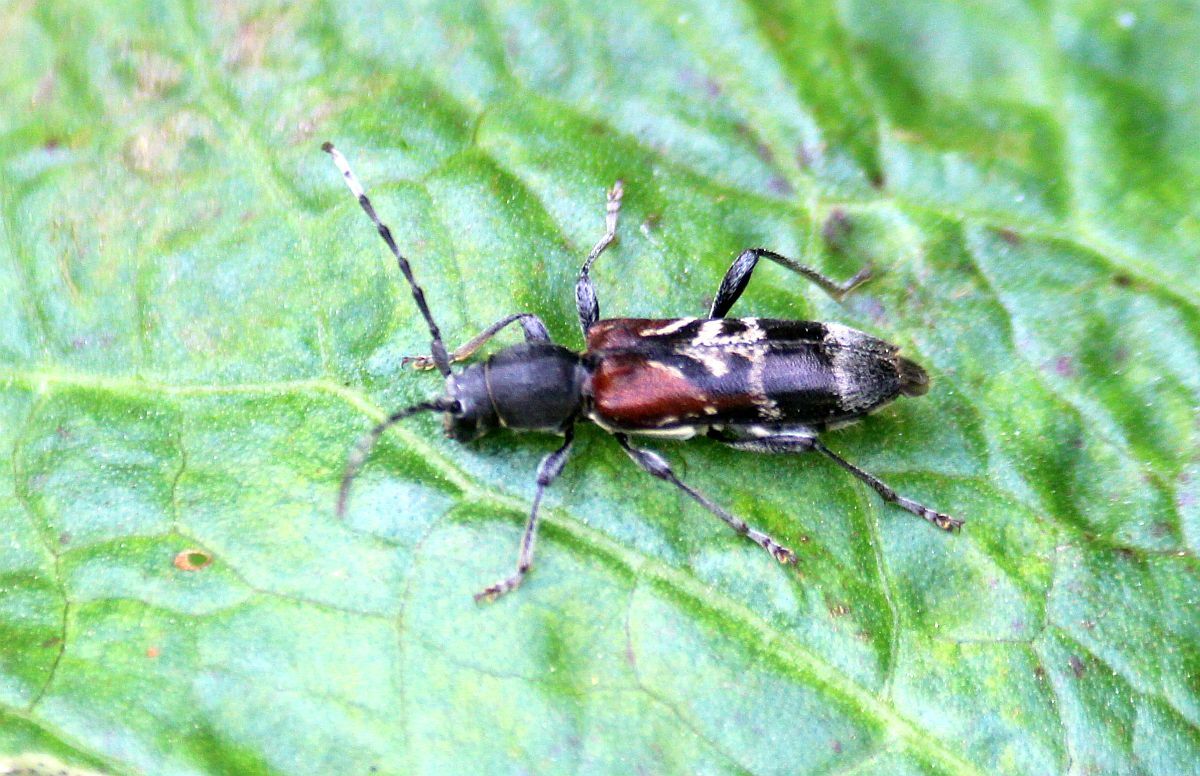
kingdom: Animalia
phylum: Arthropoda
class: Insecta
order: Coleoptera
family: Cerambycidae
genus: Anaglyptus
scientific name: Anaglyptus mysticus
